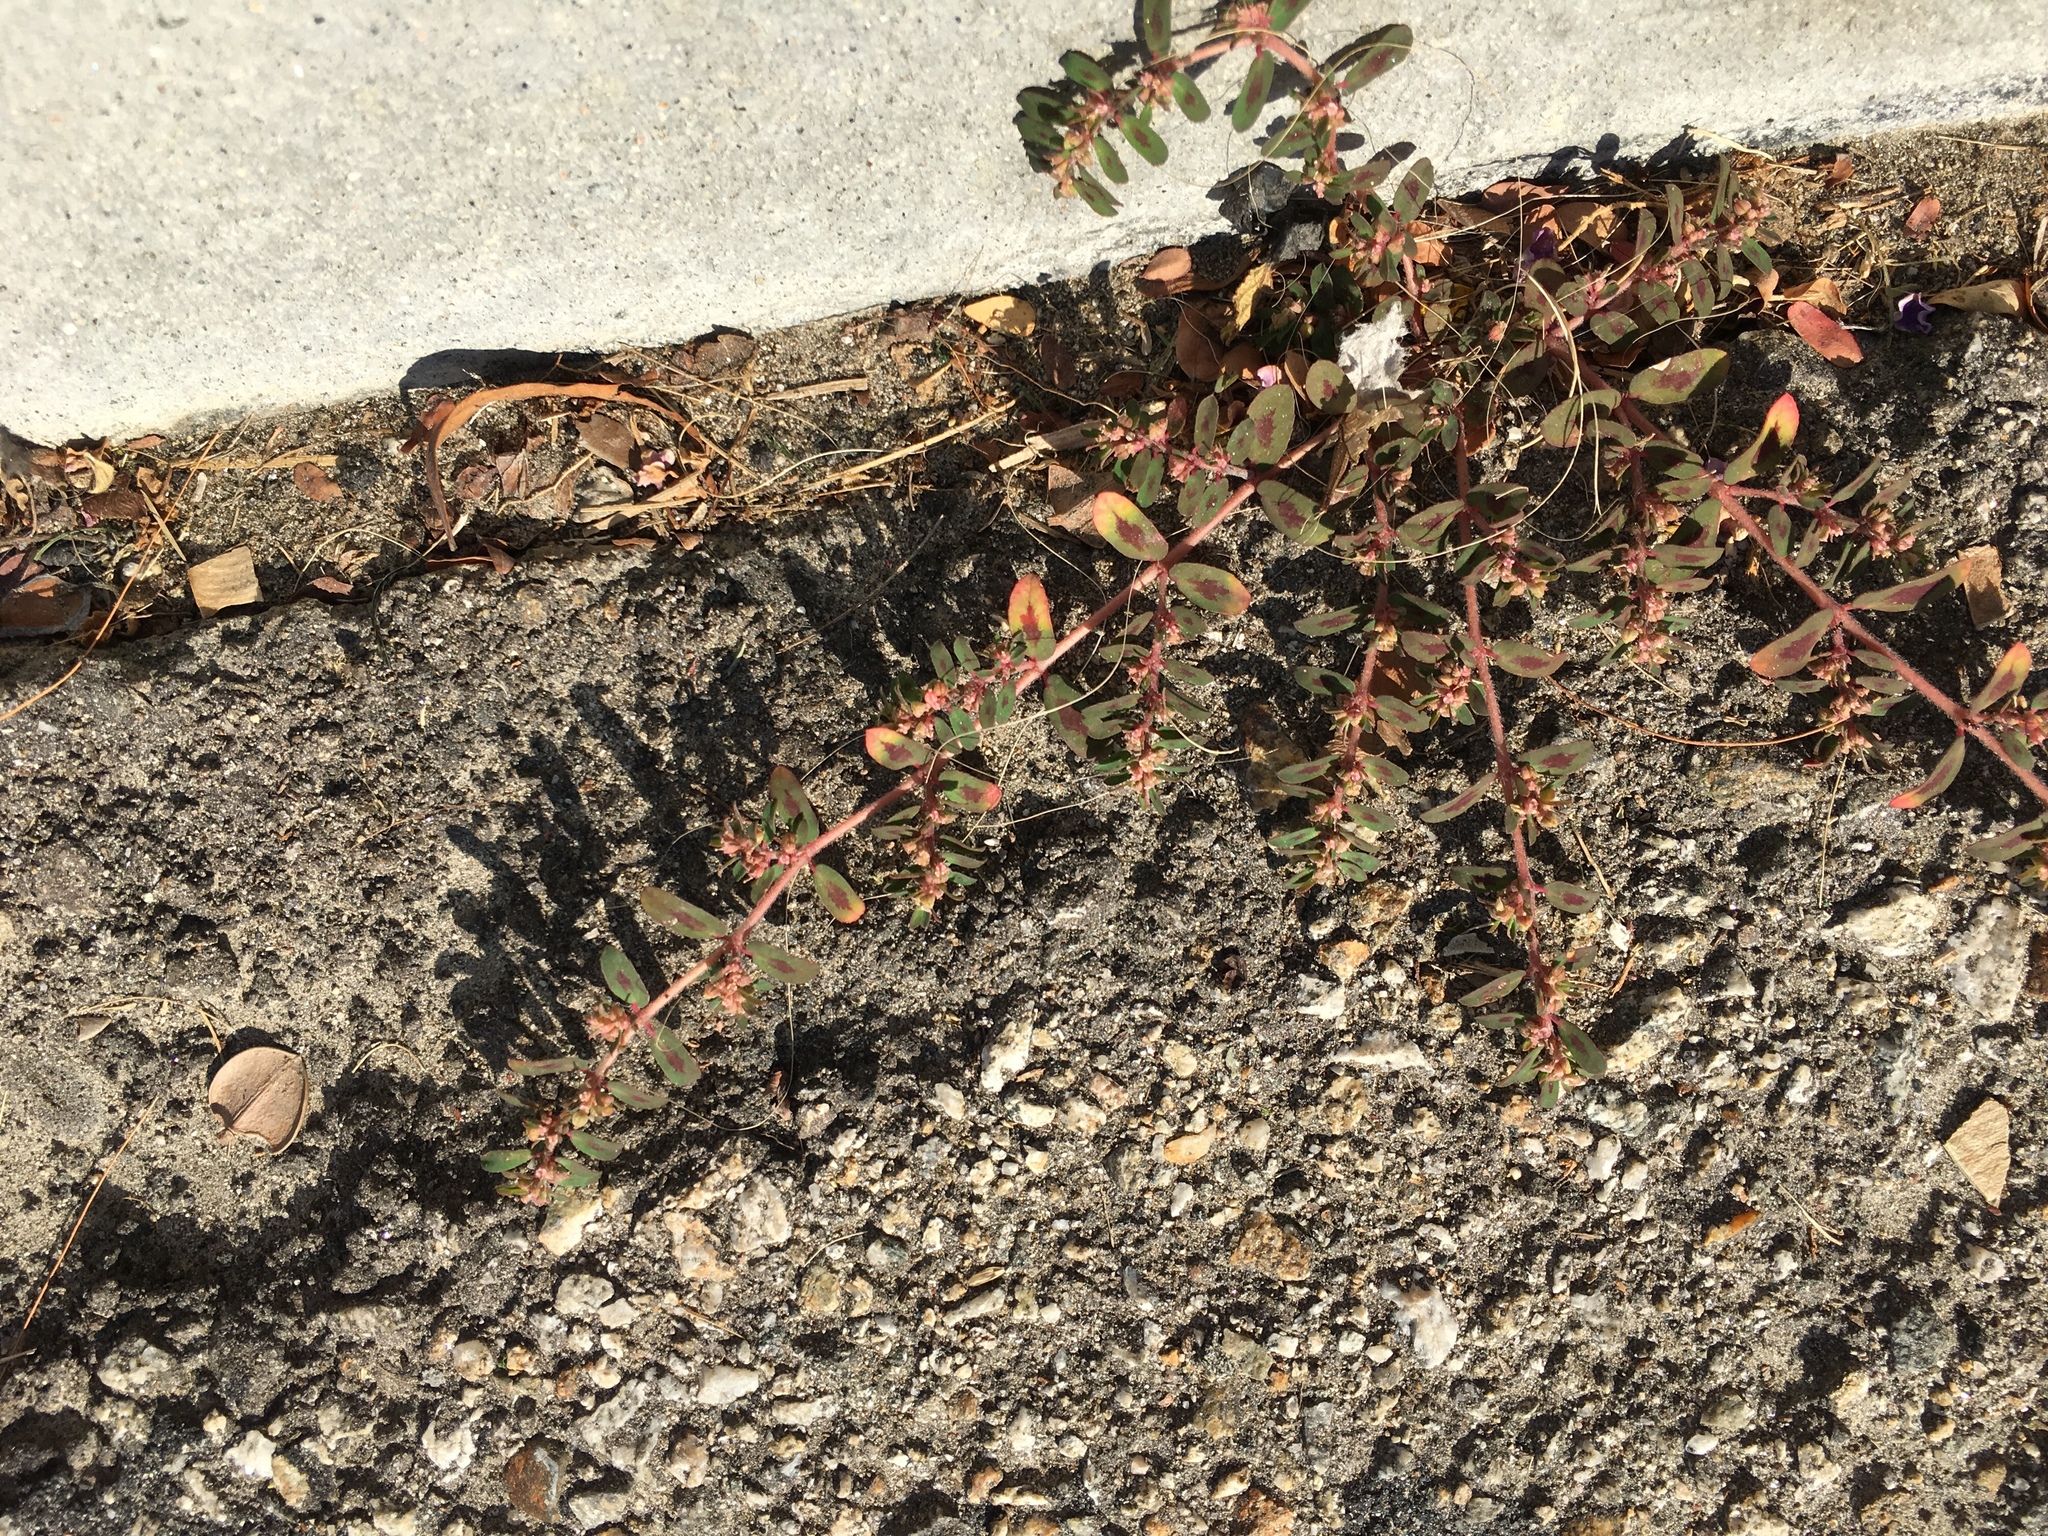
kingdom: Plantae
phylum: Tracheophyta
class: Magnoliopsida
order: Malpighiales
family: Euphorbiaceae
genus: Euphorbia
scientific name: Euphorbia maculata
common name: Spotted spurge
